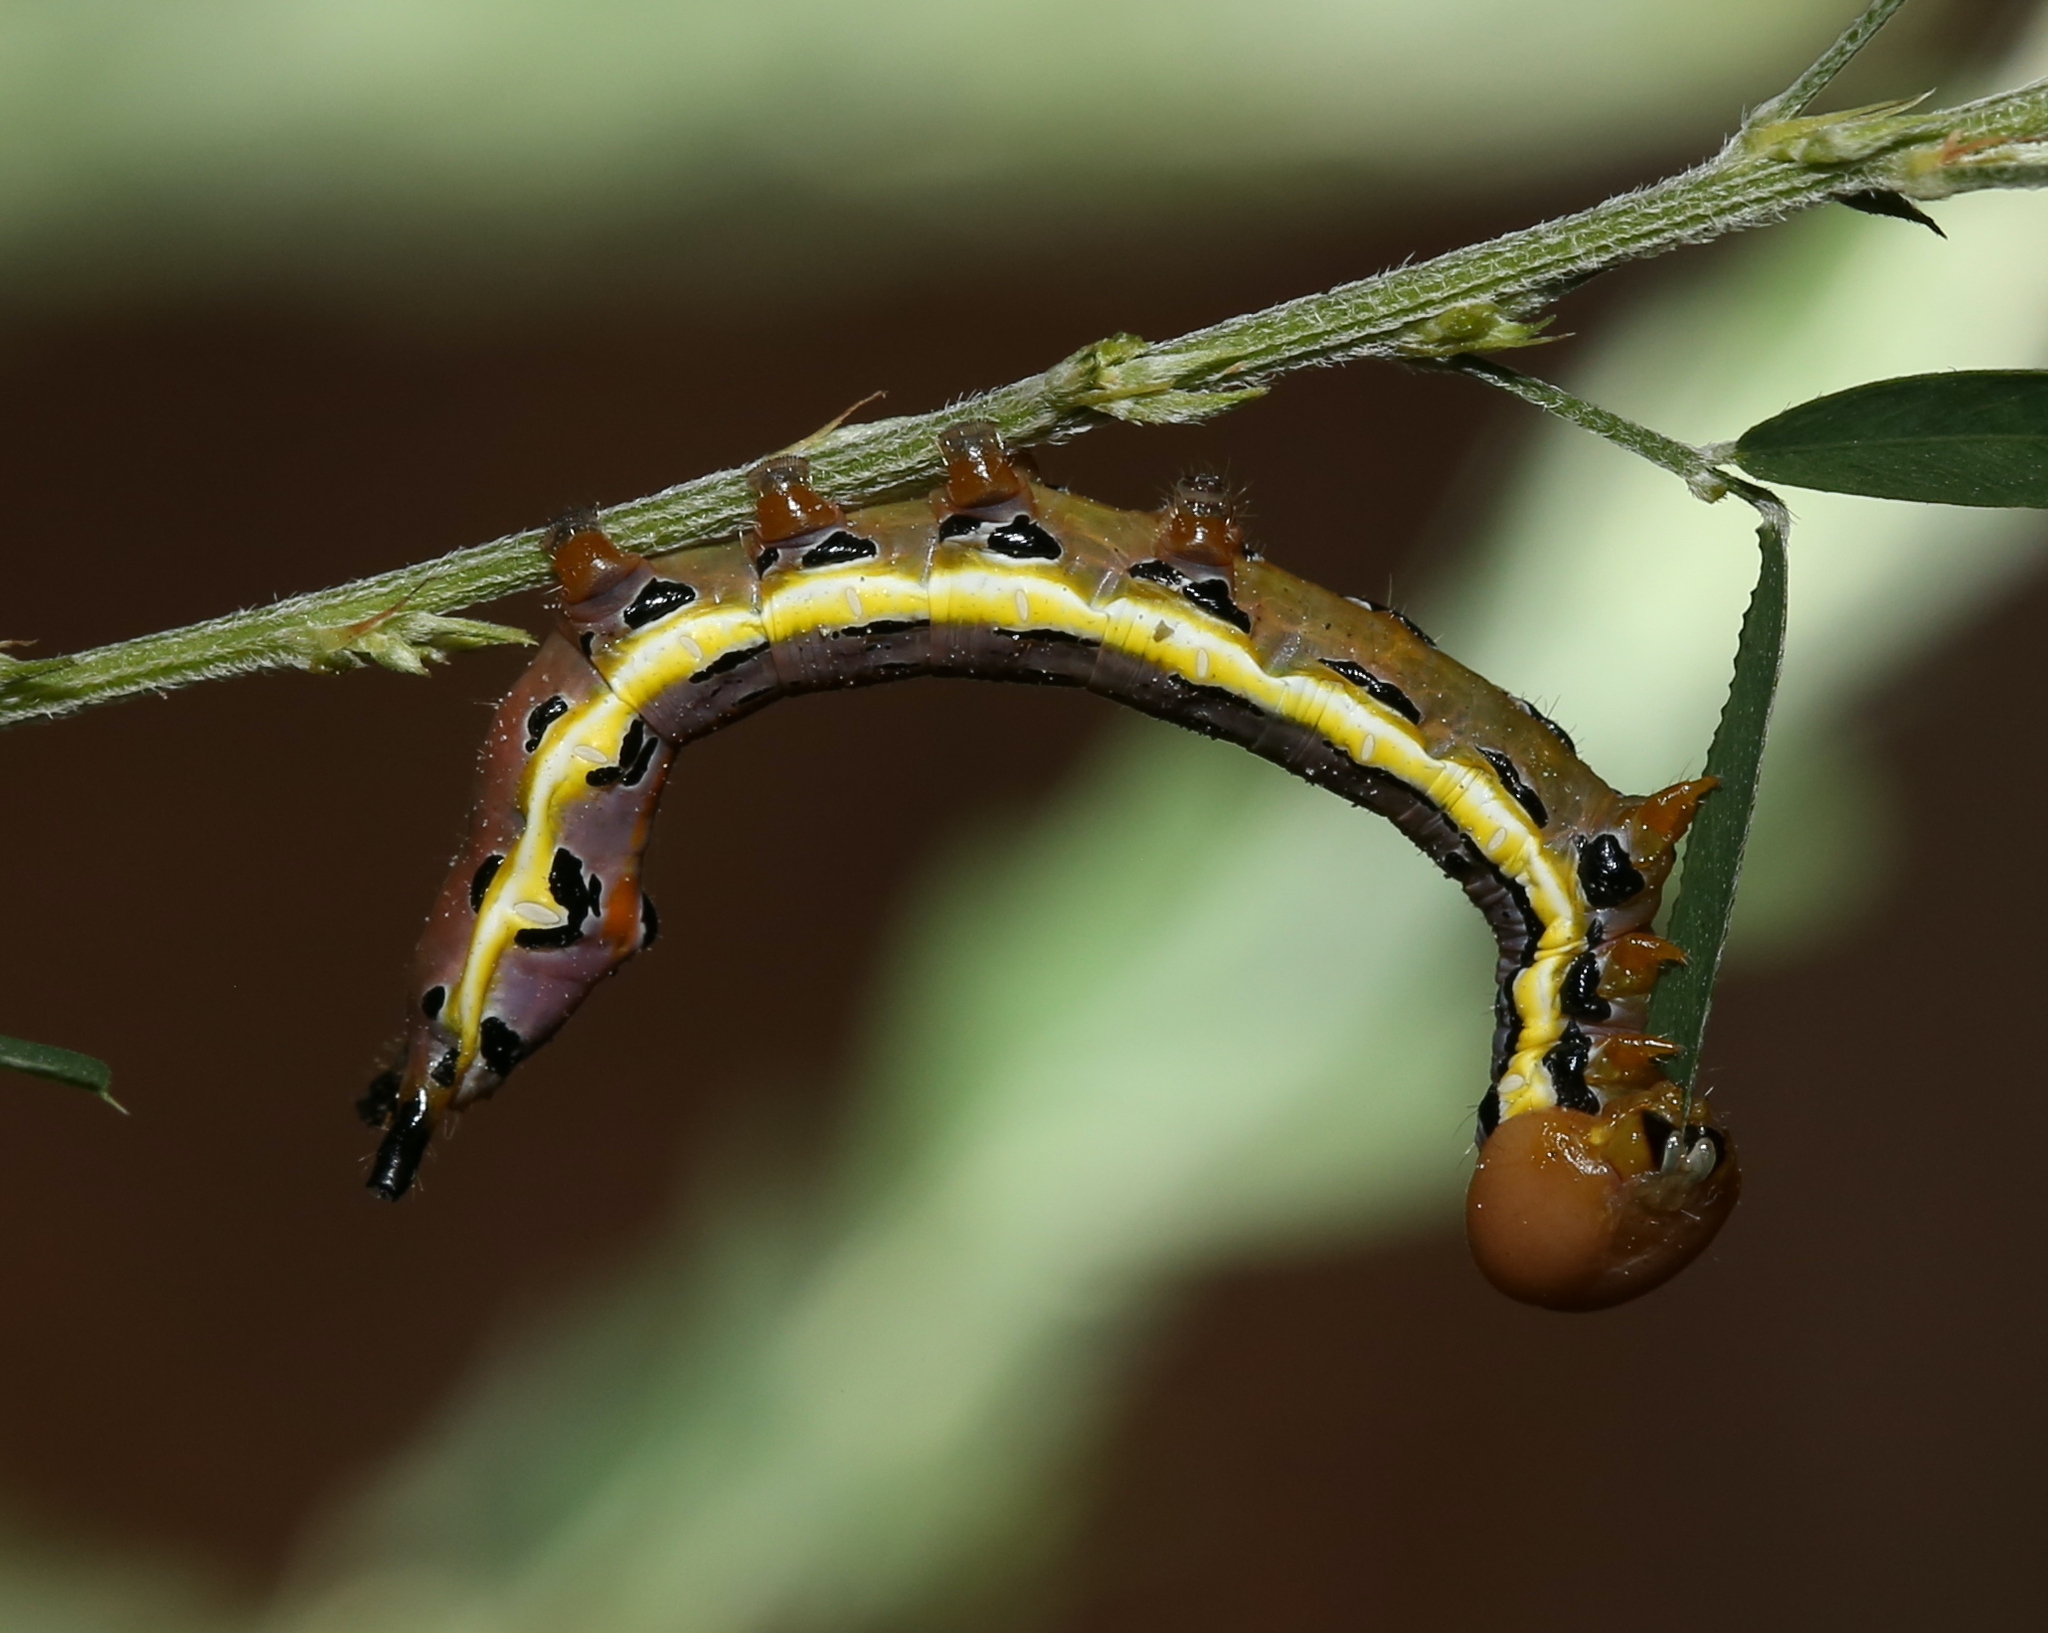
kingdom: Animalia
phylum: Arthropoda
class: Insecta
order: Lepidoptera
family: Notodontidae
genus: Dasylophia
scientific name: Dasylophia anguina
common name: Black-spotted prominent
